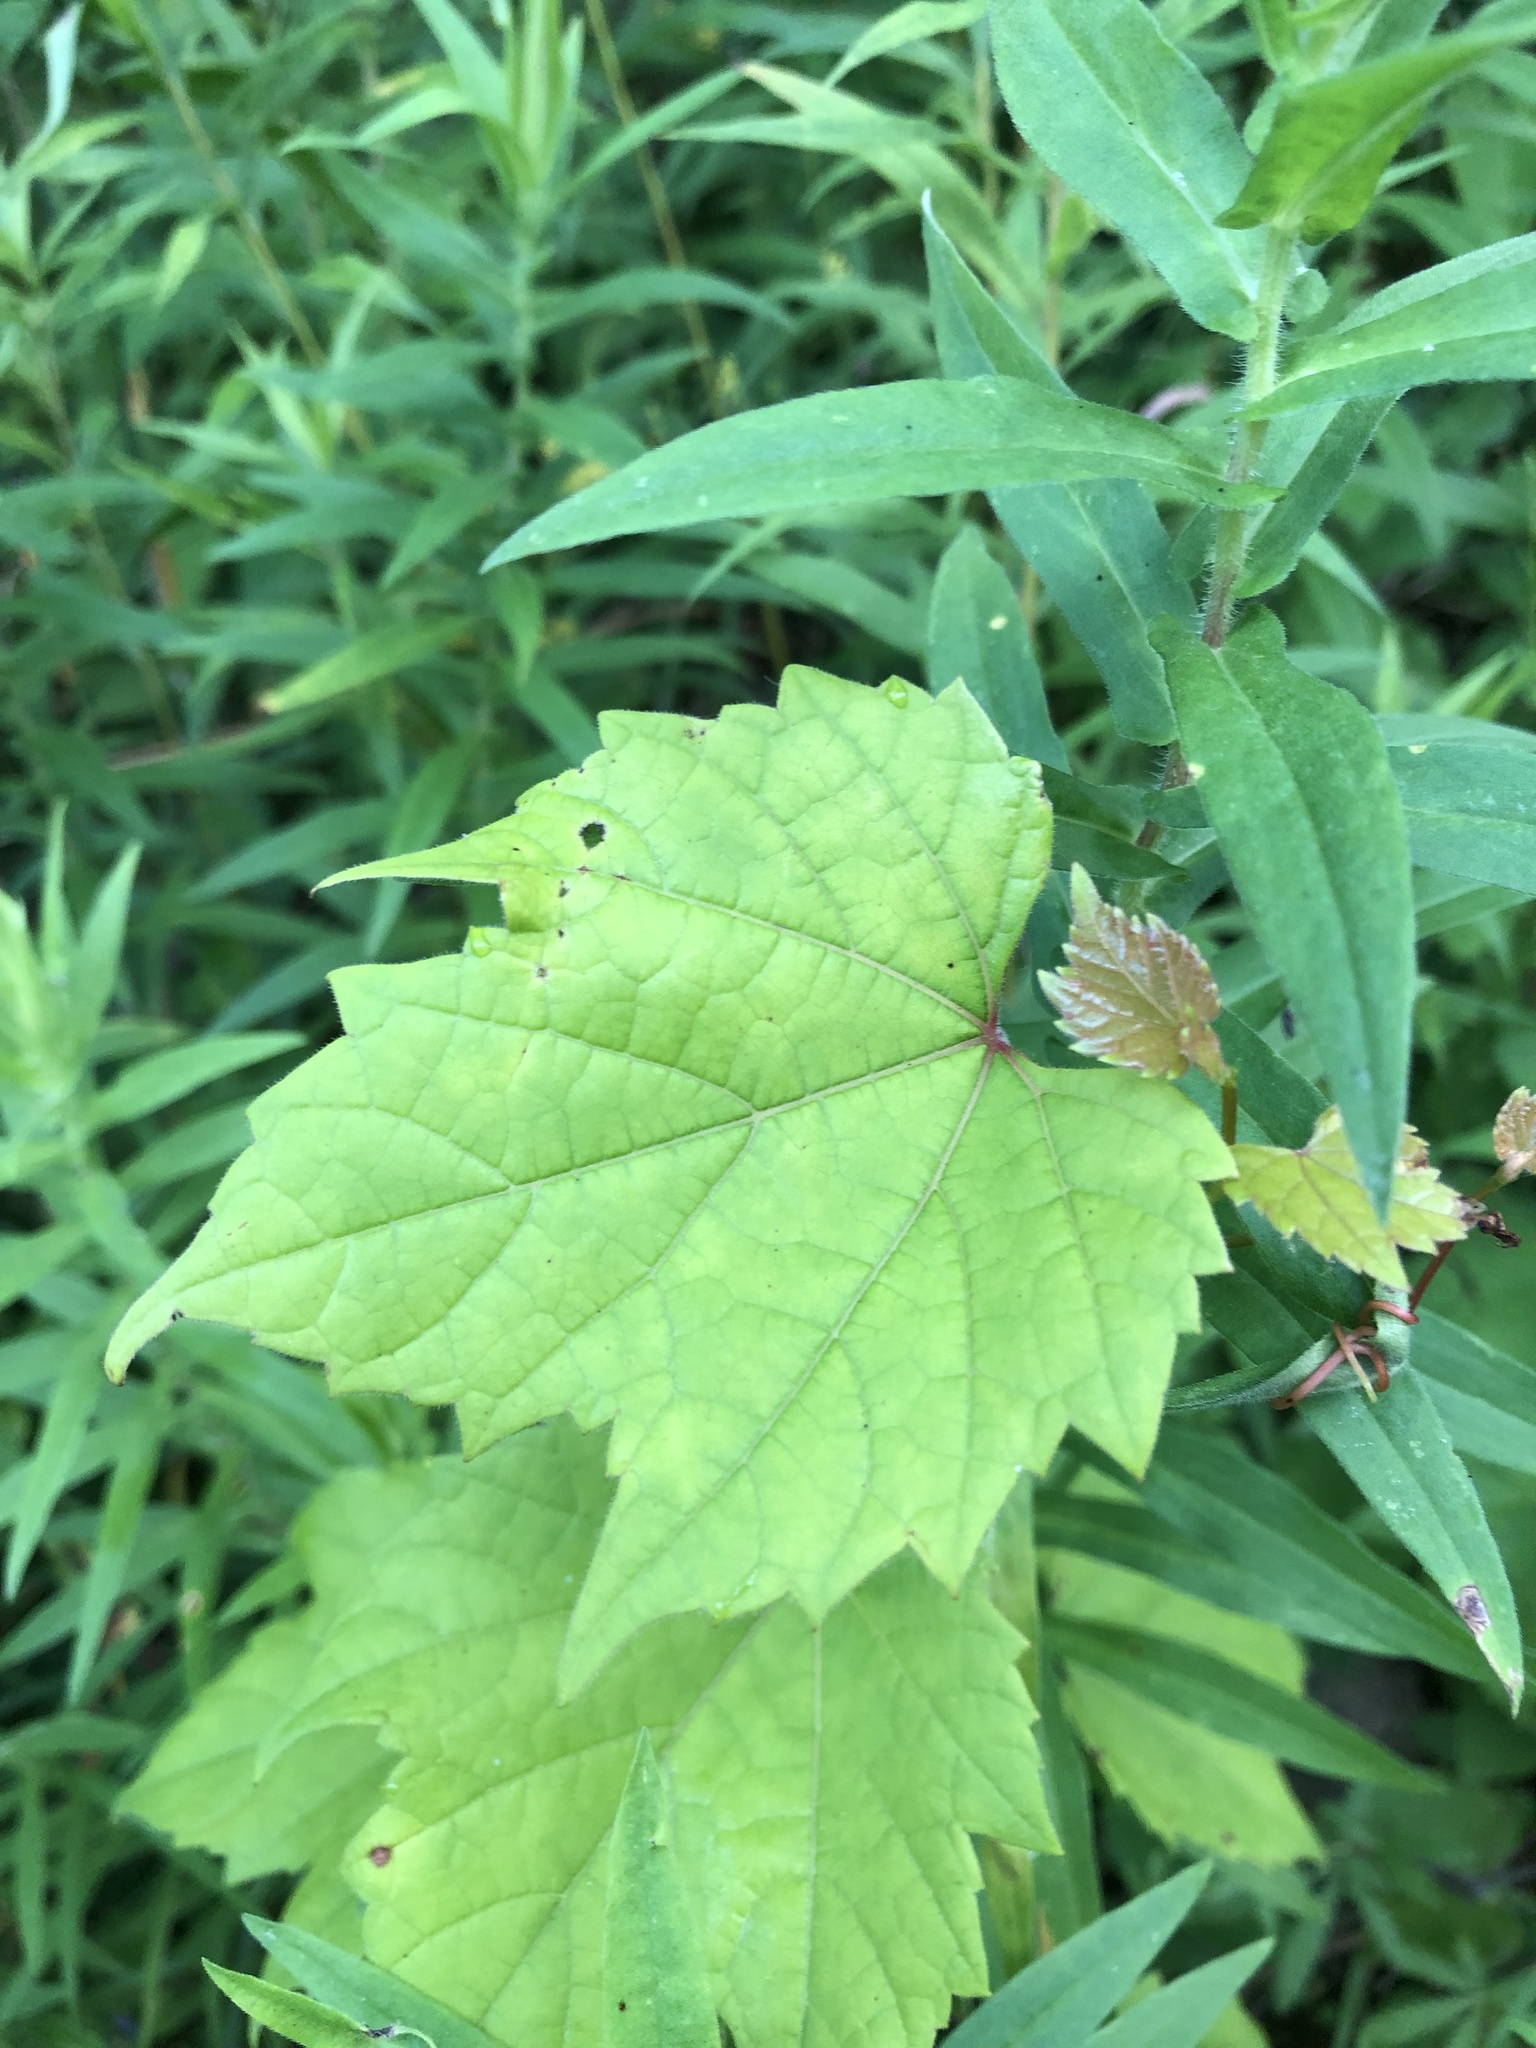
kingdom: Plantae
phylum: Tracheophyta
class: Magnoliopsida
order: Vitales
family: Vitaceae
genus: Vitis
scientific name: Vitis riparia
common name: Frost grape
